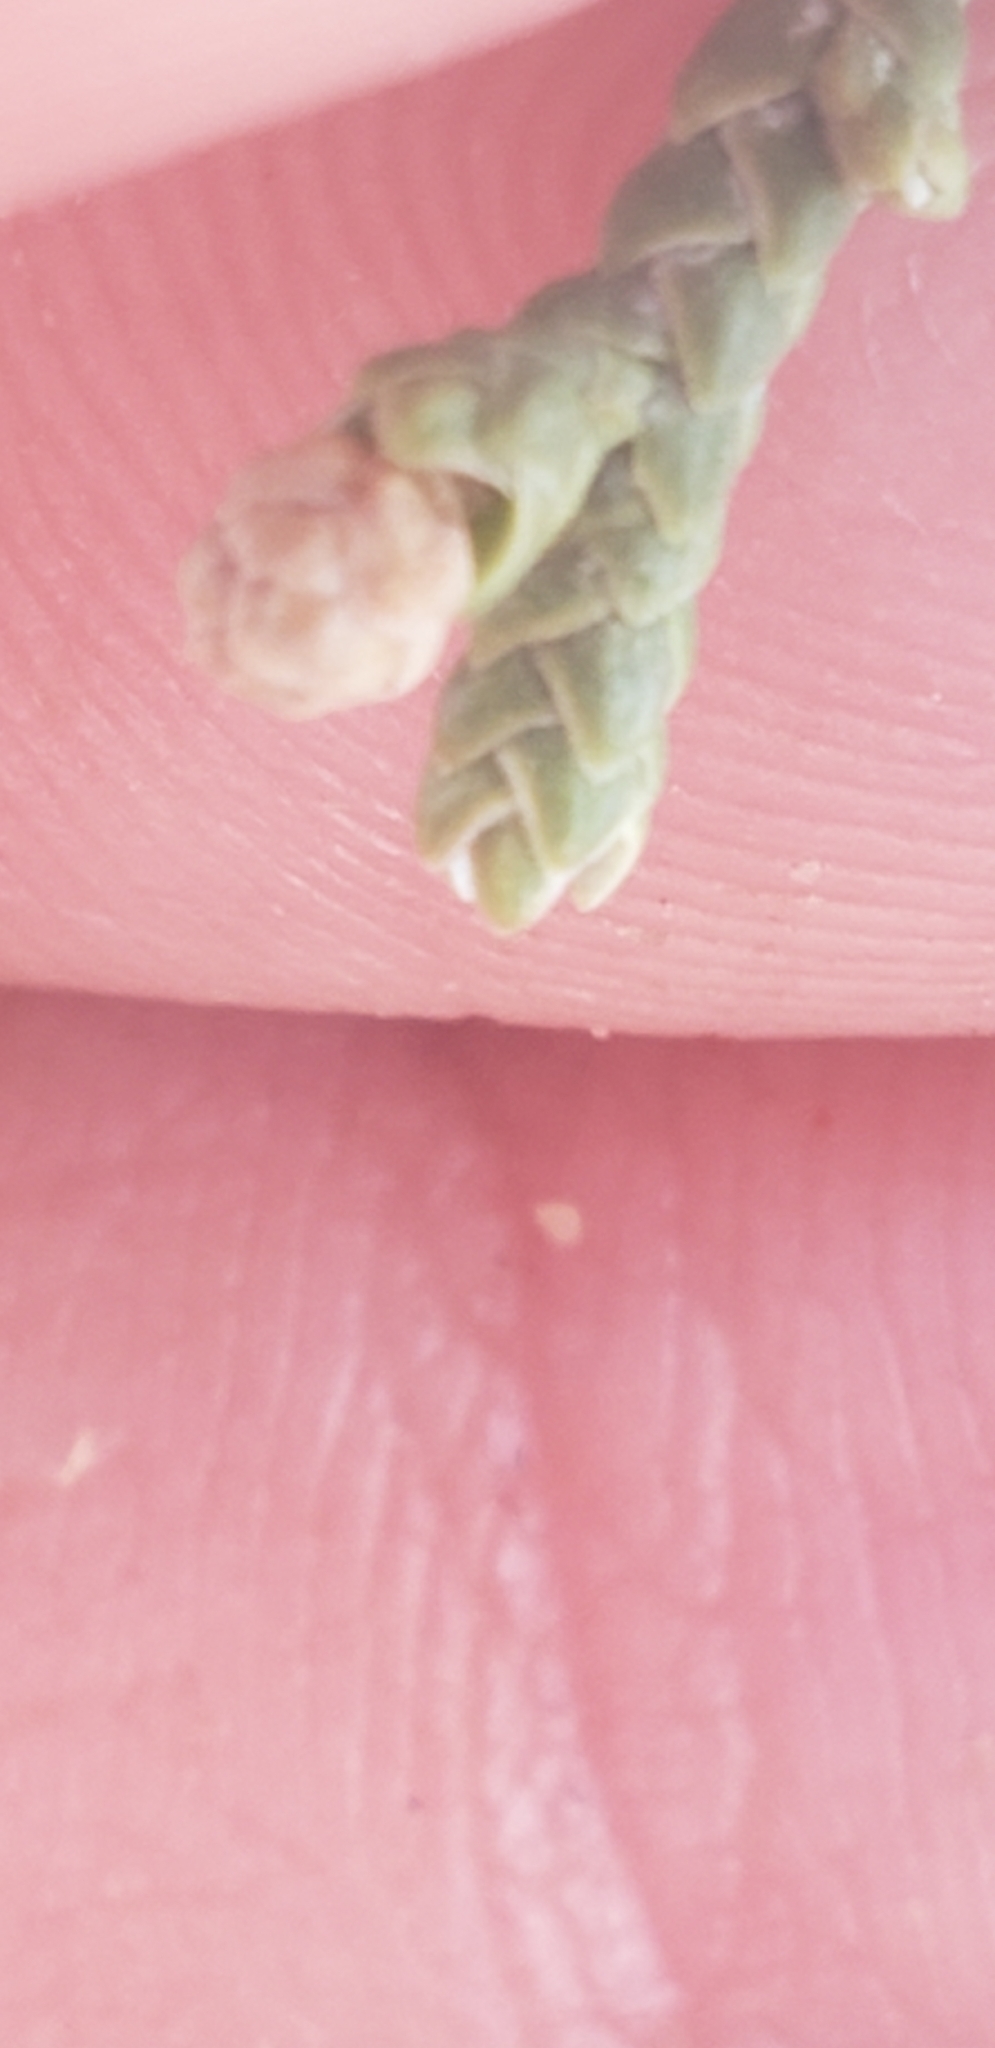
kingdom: Plantae
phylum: Tracheophyta
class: Pinopsida
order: Pinales
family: Cupressaceae
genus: Juniperus
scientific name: Juniperus osteosperma
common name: Utah juniper
